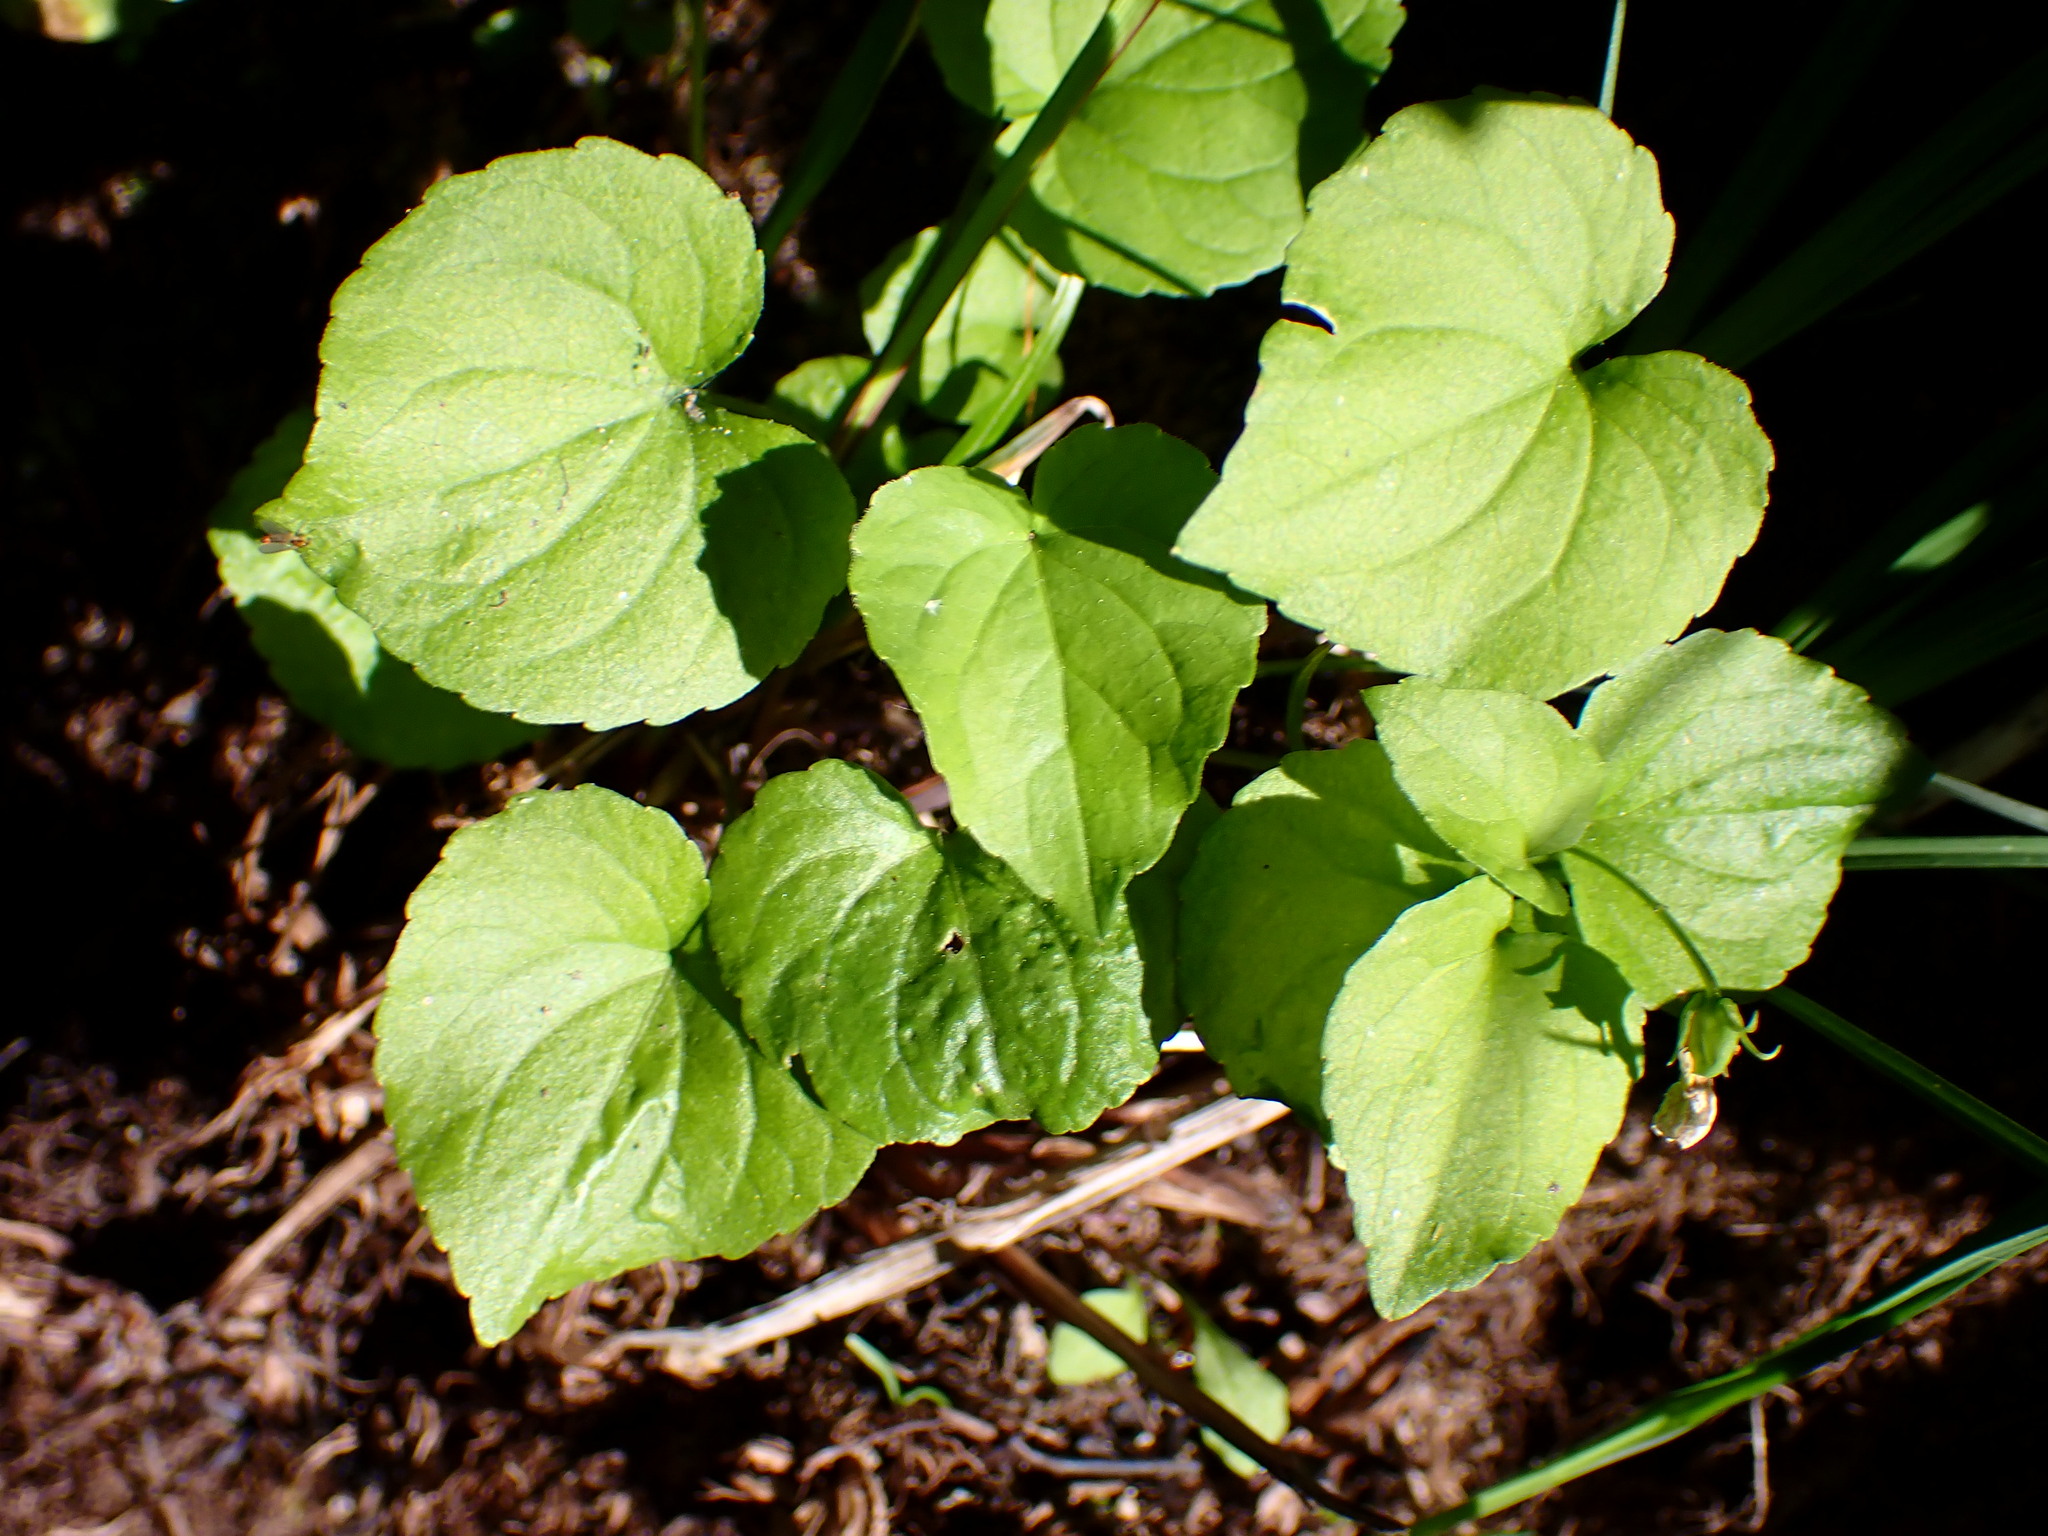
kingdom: Plantae
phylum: Tracheophyta
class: Magnoliopsida
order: Malpighiales
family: Violaceae
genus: Viola
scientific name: Viola glabella
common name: Stream violet
